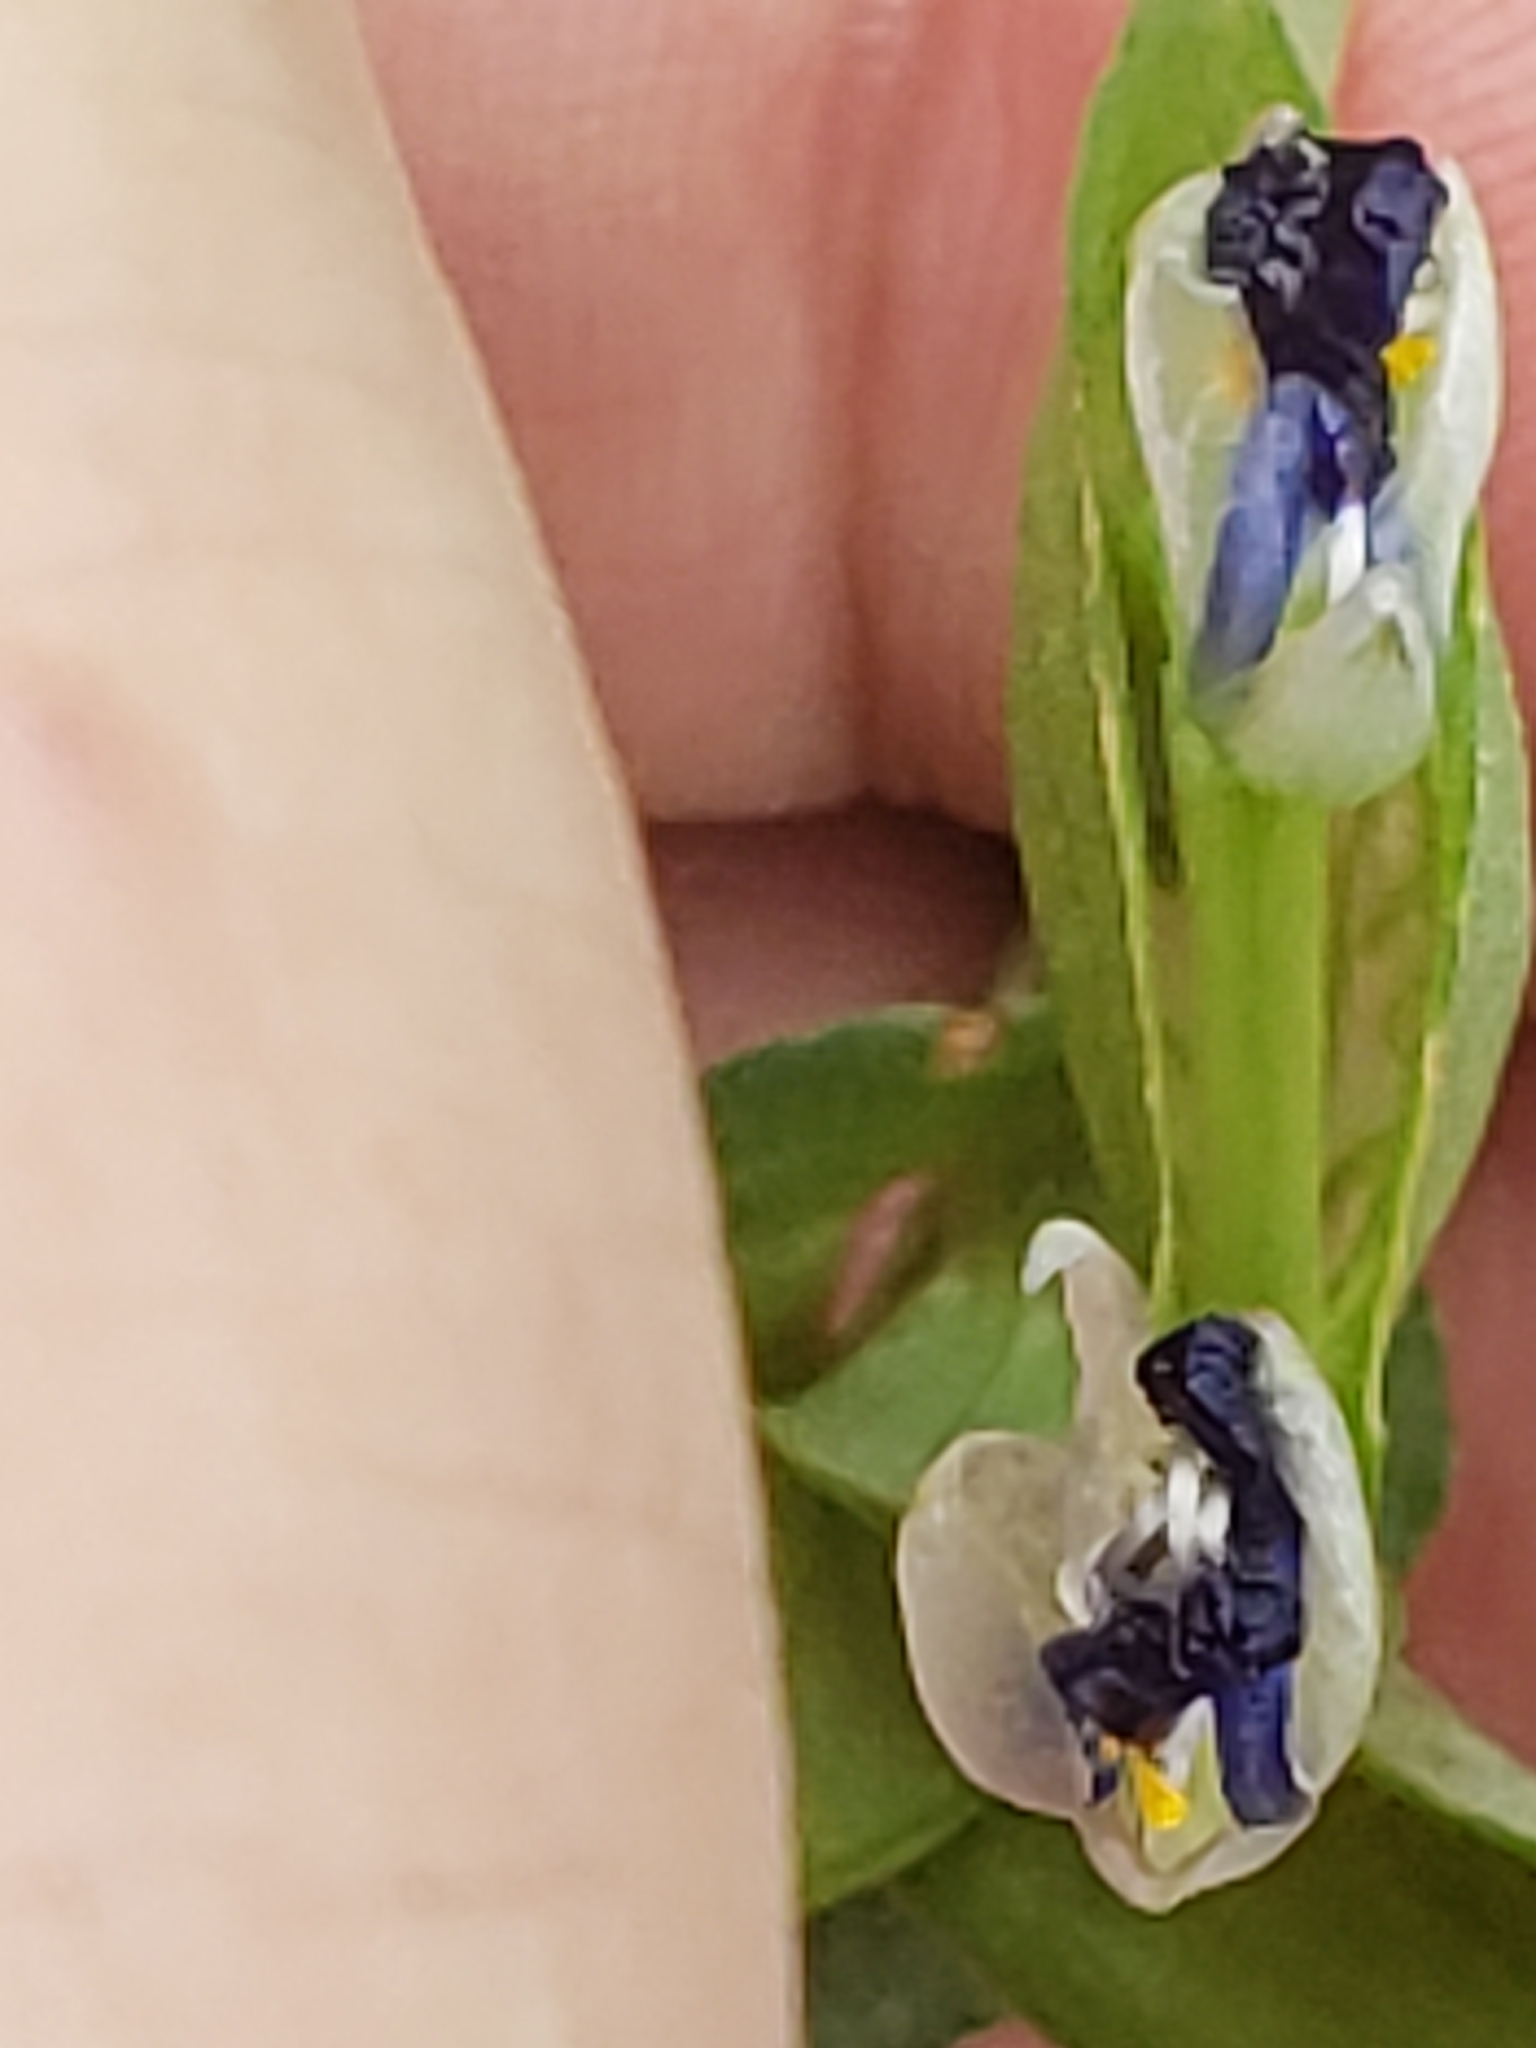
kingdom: Plantae
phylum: Tracheophyta
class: Liliopsida
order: Commelinales
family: Commelinaceae
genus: Commelina
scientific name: Commelina communis
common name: Asiatic dayflower
